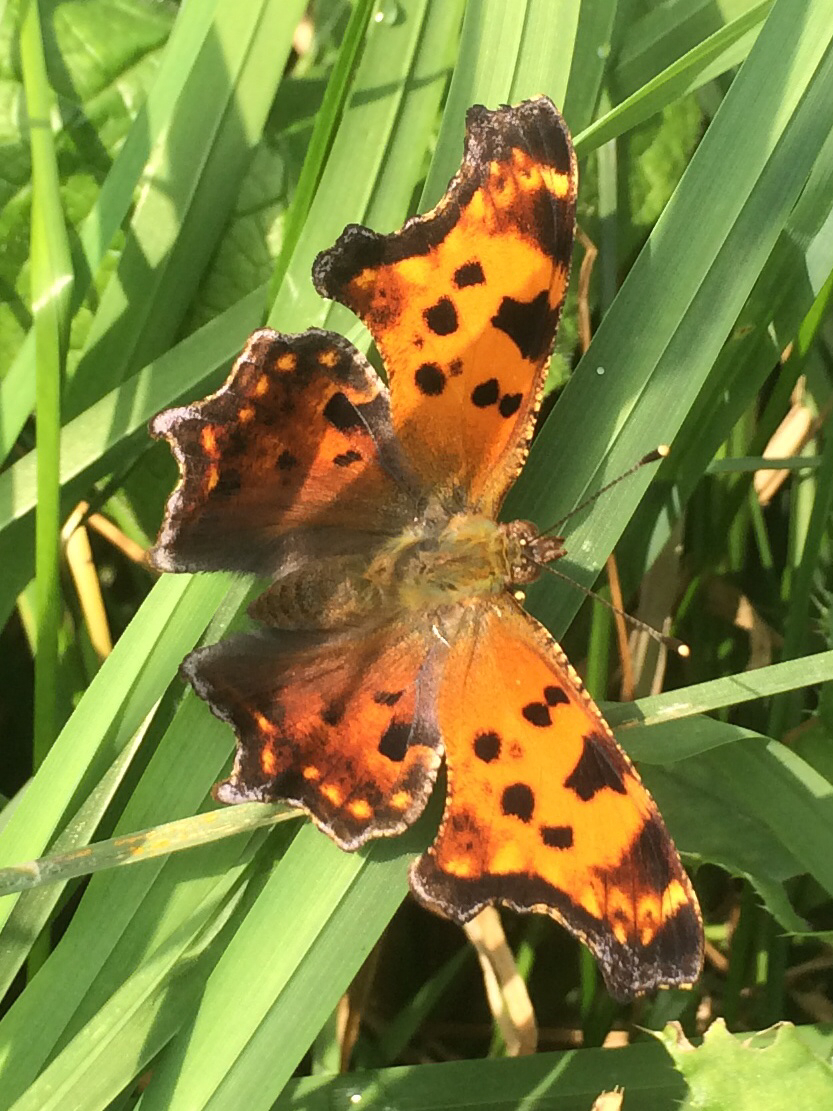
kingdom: Animalia
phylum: Arthropoda
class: Insecta
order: Lepidoptera
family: Nymphalidae
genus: Polygonia
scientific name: Polygonia comma
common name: Eastern comma
